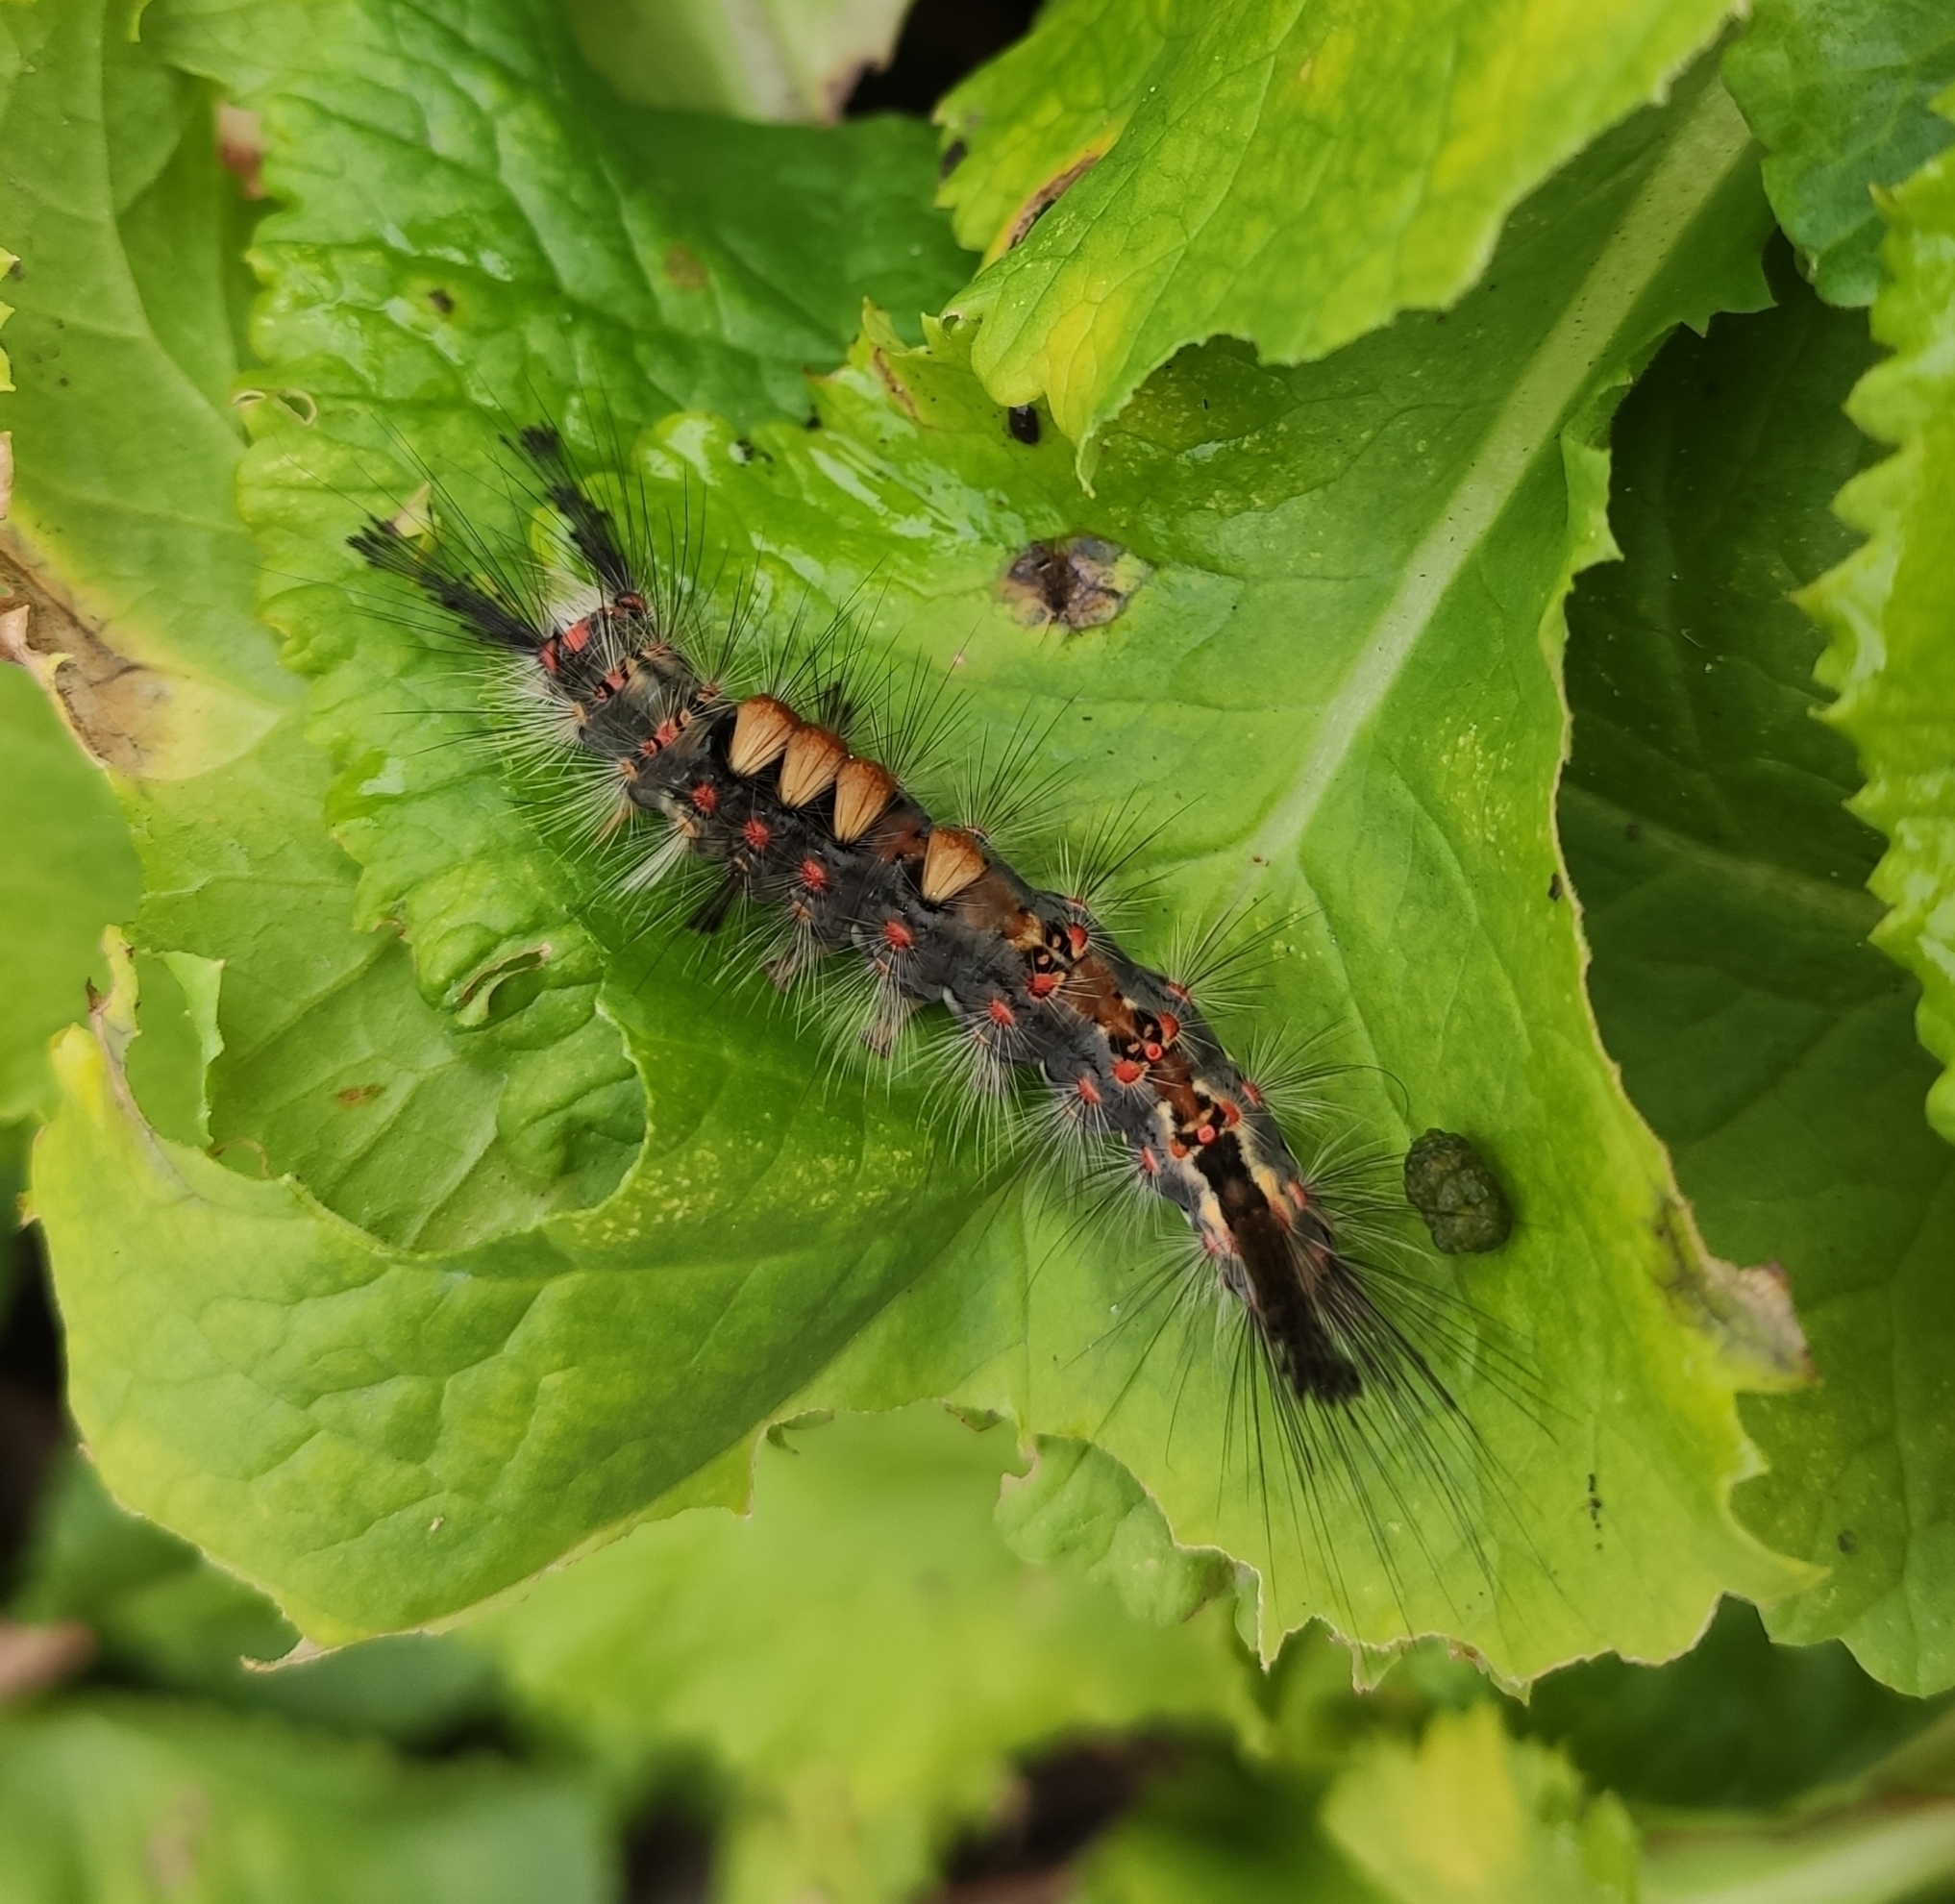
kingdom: Animalia
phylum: Arthropoda
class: Insecta
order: Lepidoptera
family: Erebidae
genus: Orgyia
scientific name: Orgyia antiqua
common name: Vapourer
